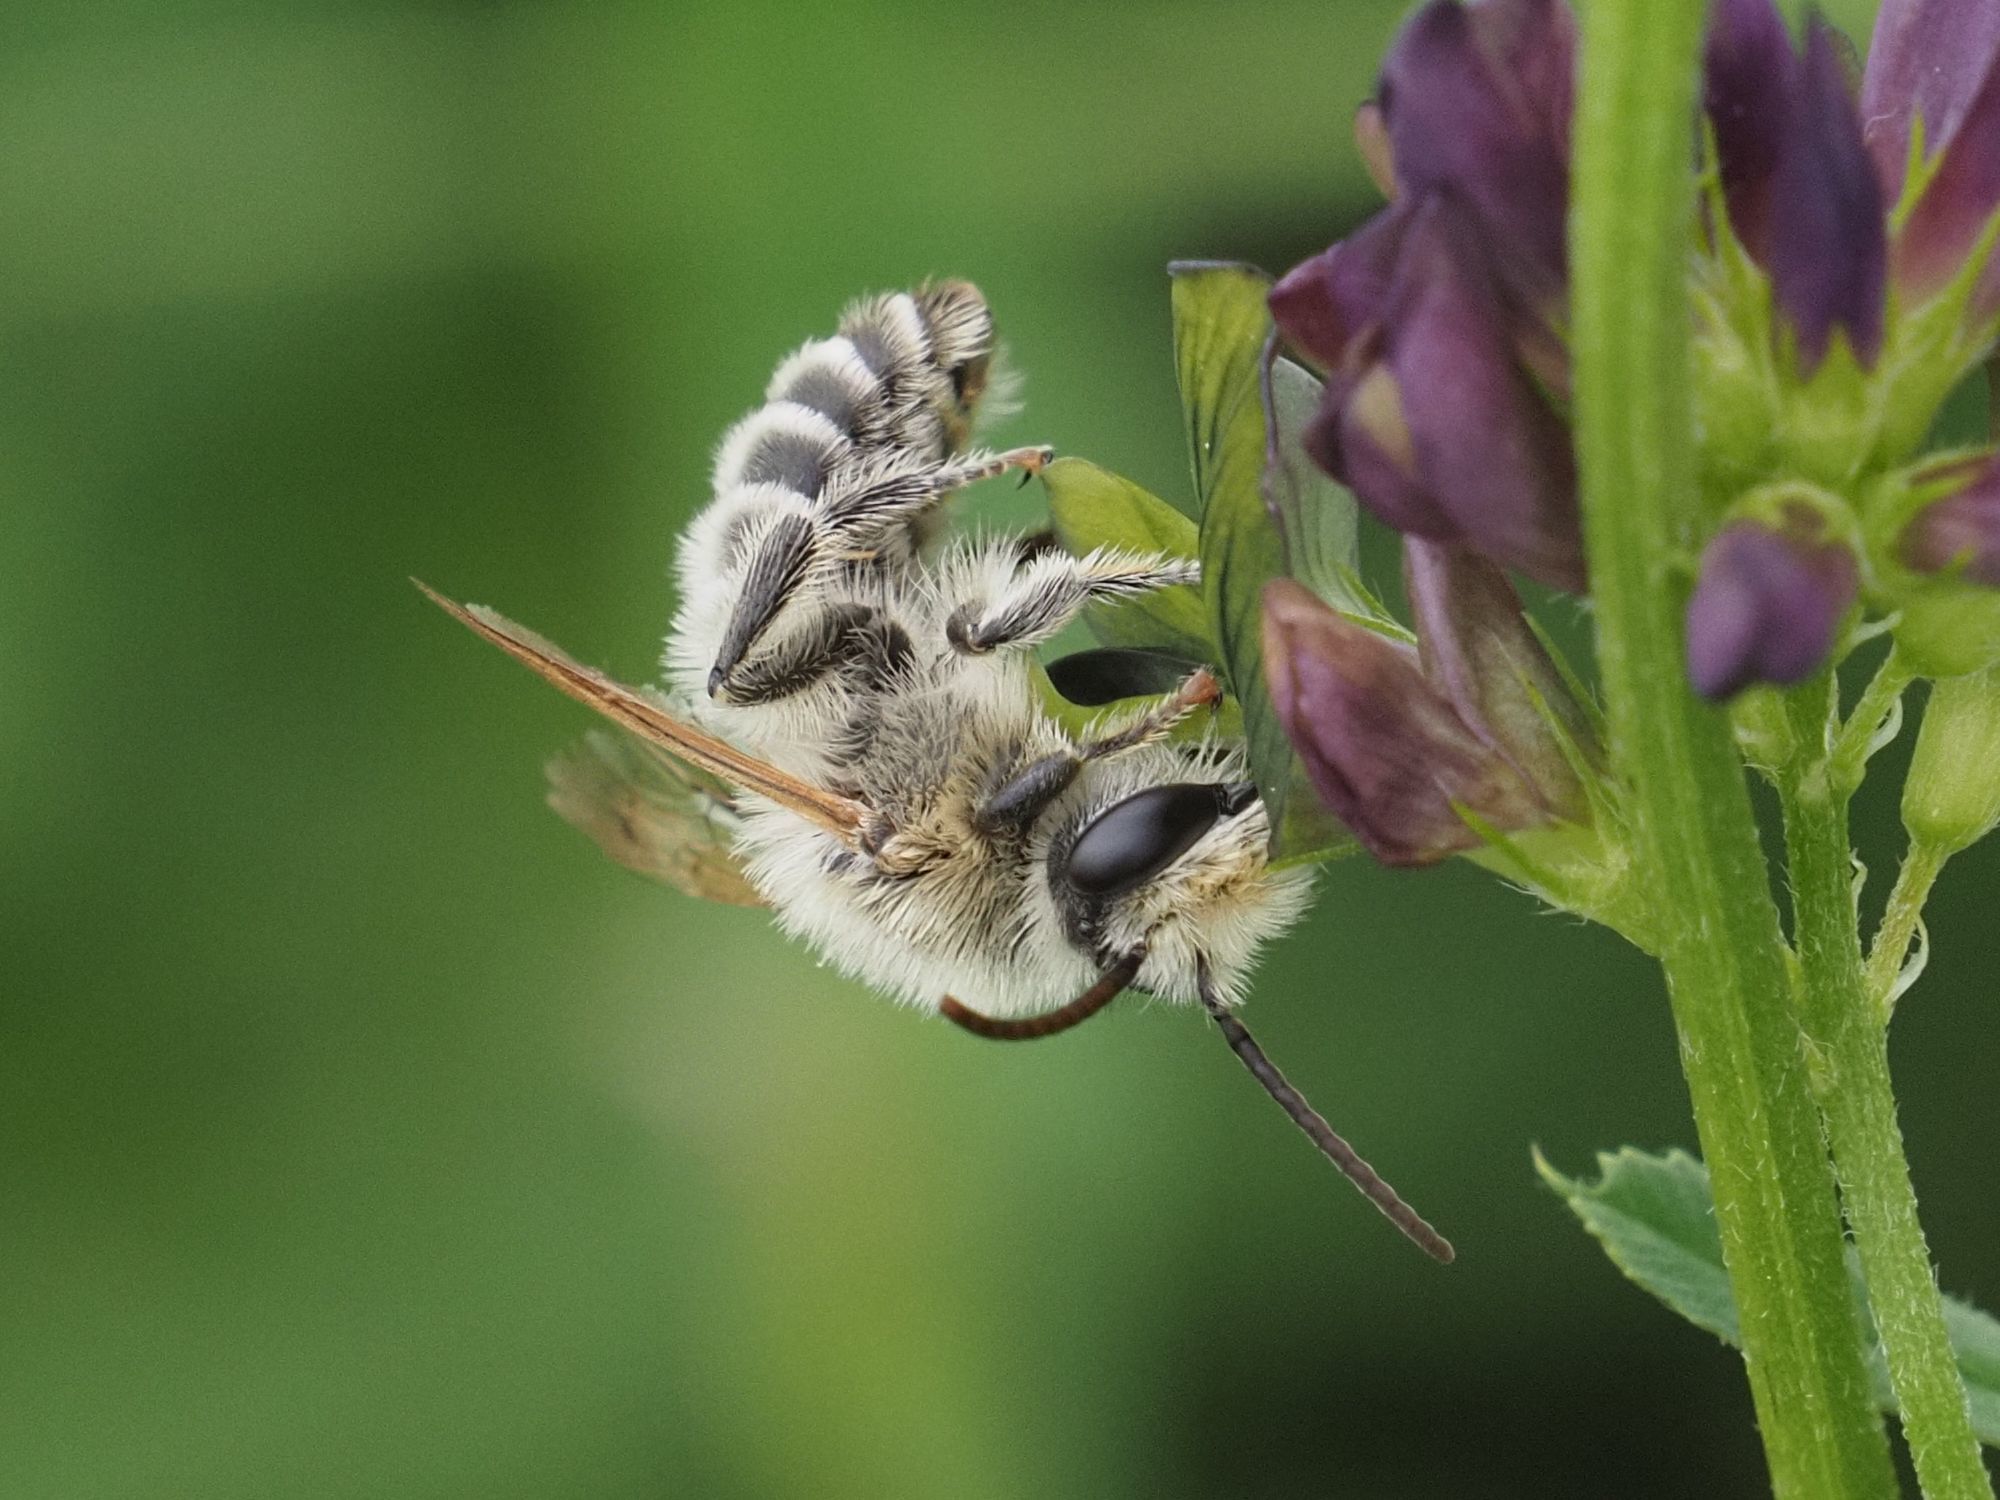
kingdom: Animalia
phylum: Arthropoda
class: Insecta
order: Hymenoptera
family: Melittidae
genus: Melitta
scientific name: Melitta leporina
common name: Clover melitta
